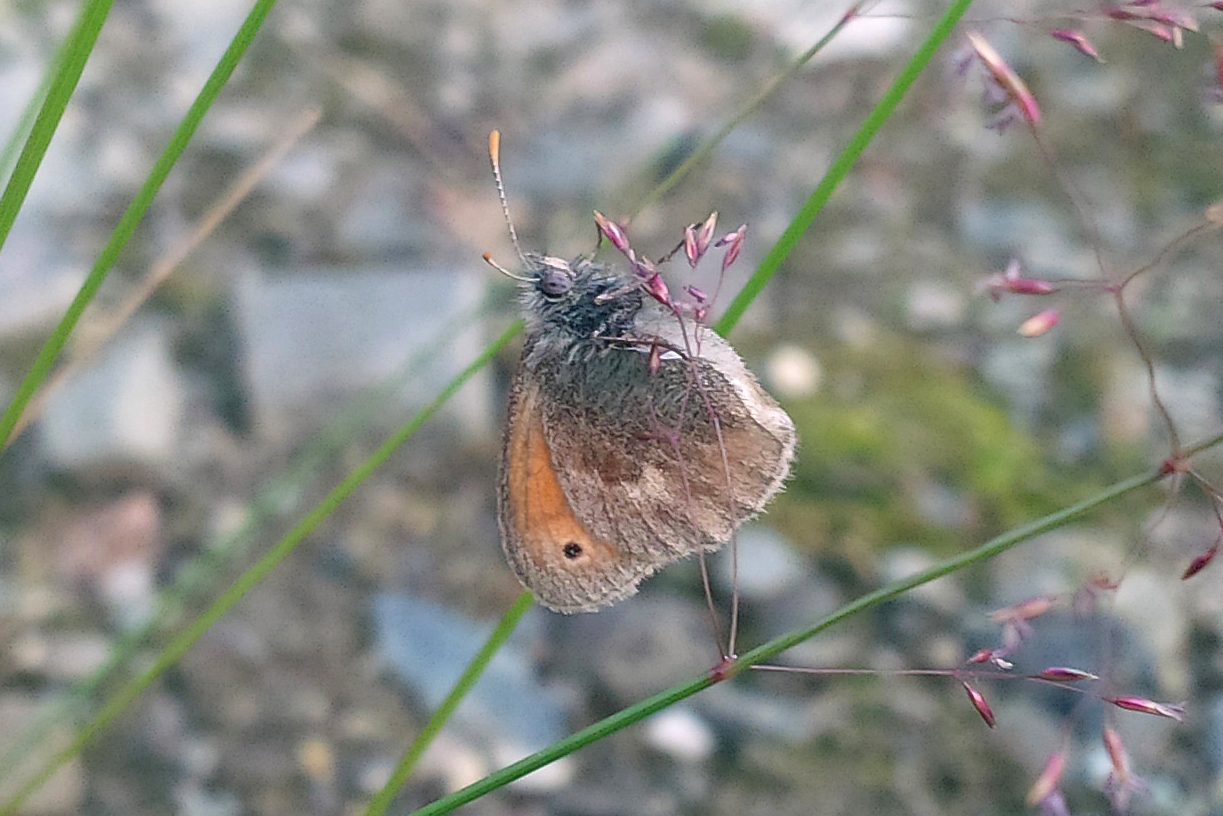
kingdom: Animalia
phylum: Arthropoda
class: Insecta
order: Lepidoptera
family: Nymphalidae
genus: Coenonympha
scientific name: Coenonympha pamphilus
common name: Small heath
